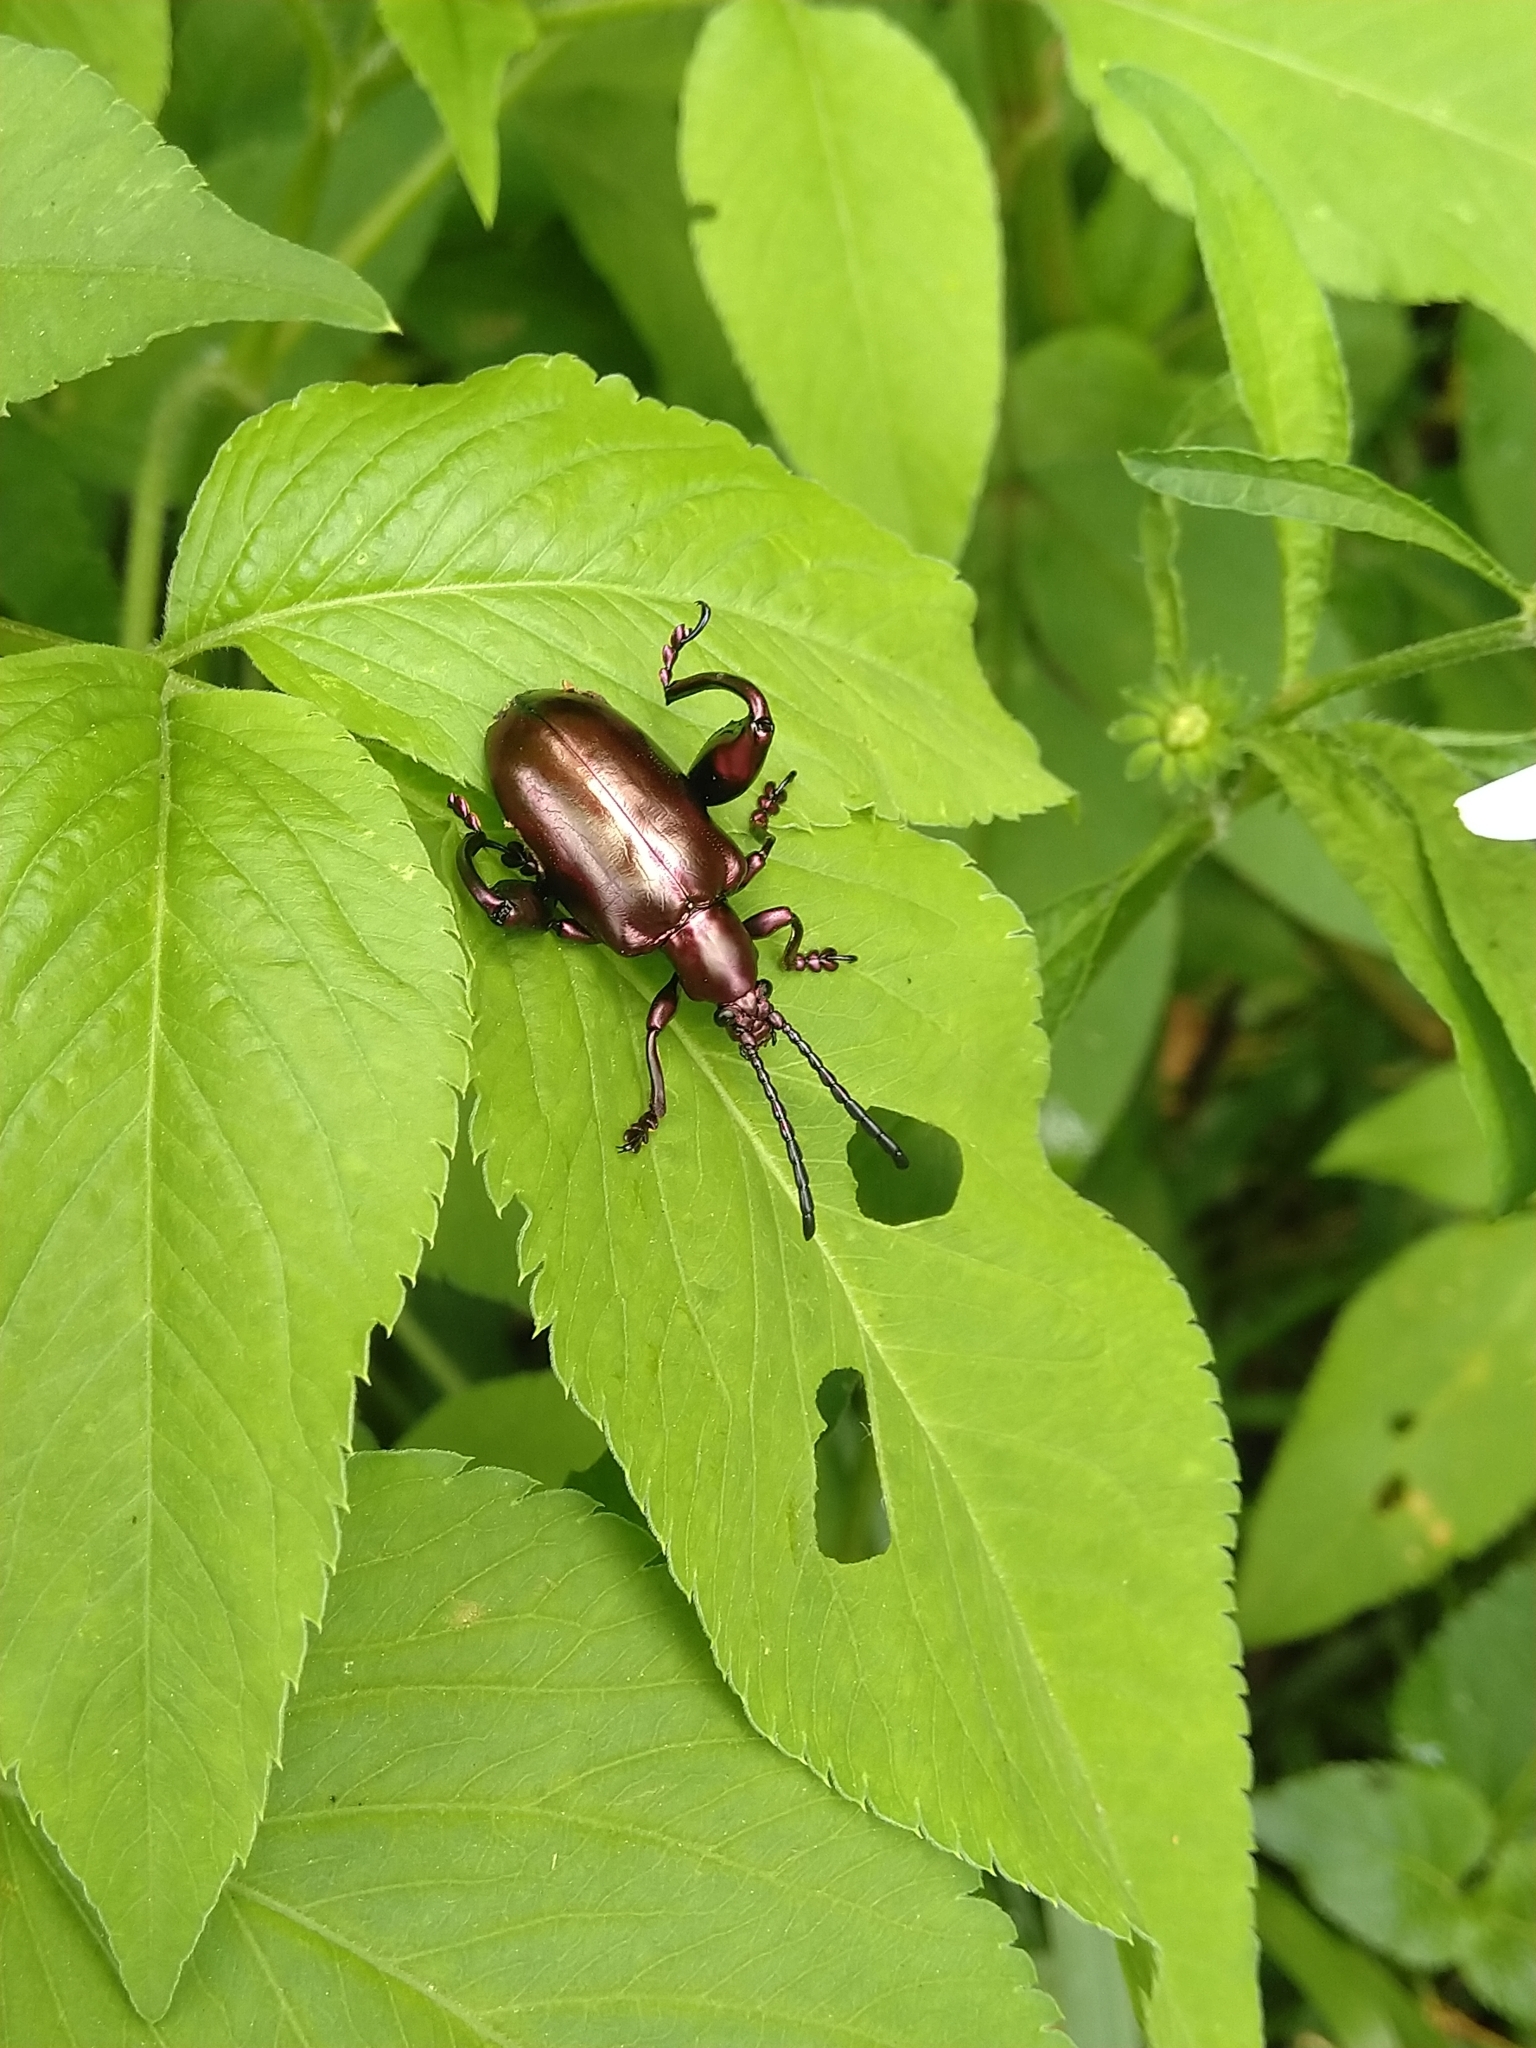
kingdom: Animalia
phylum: Arthropoda
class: Insecta
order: Coleoptera
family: Chrysomelidae
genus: Sagra
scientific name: Sagra femorata
